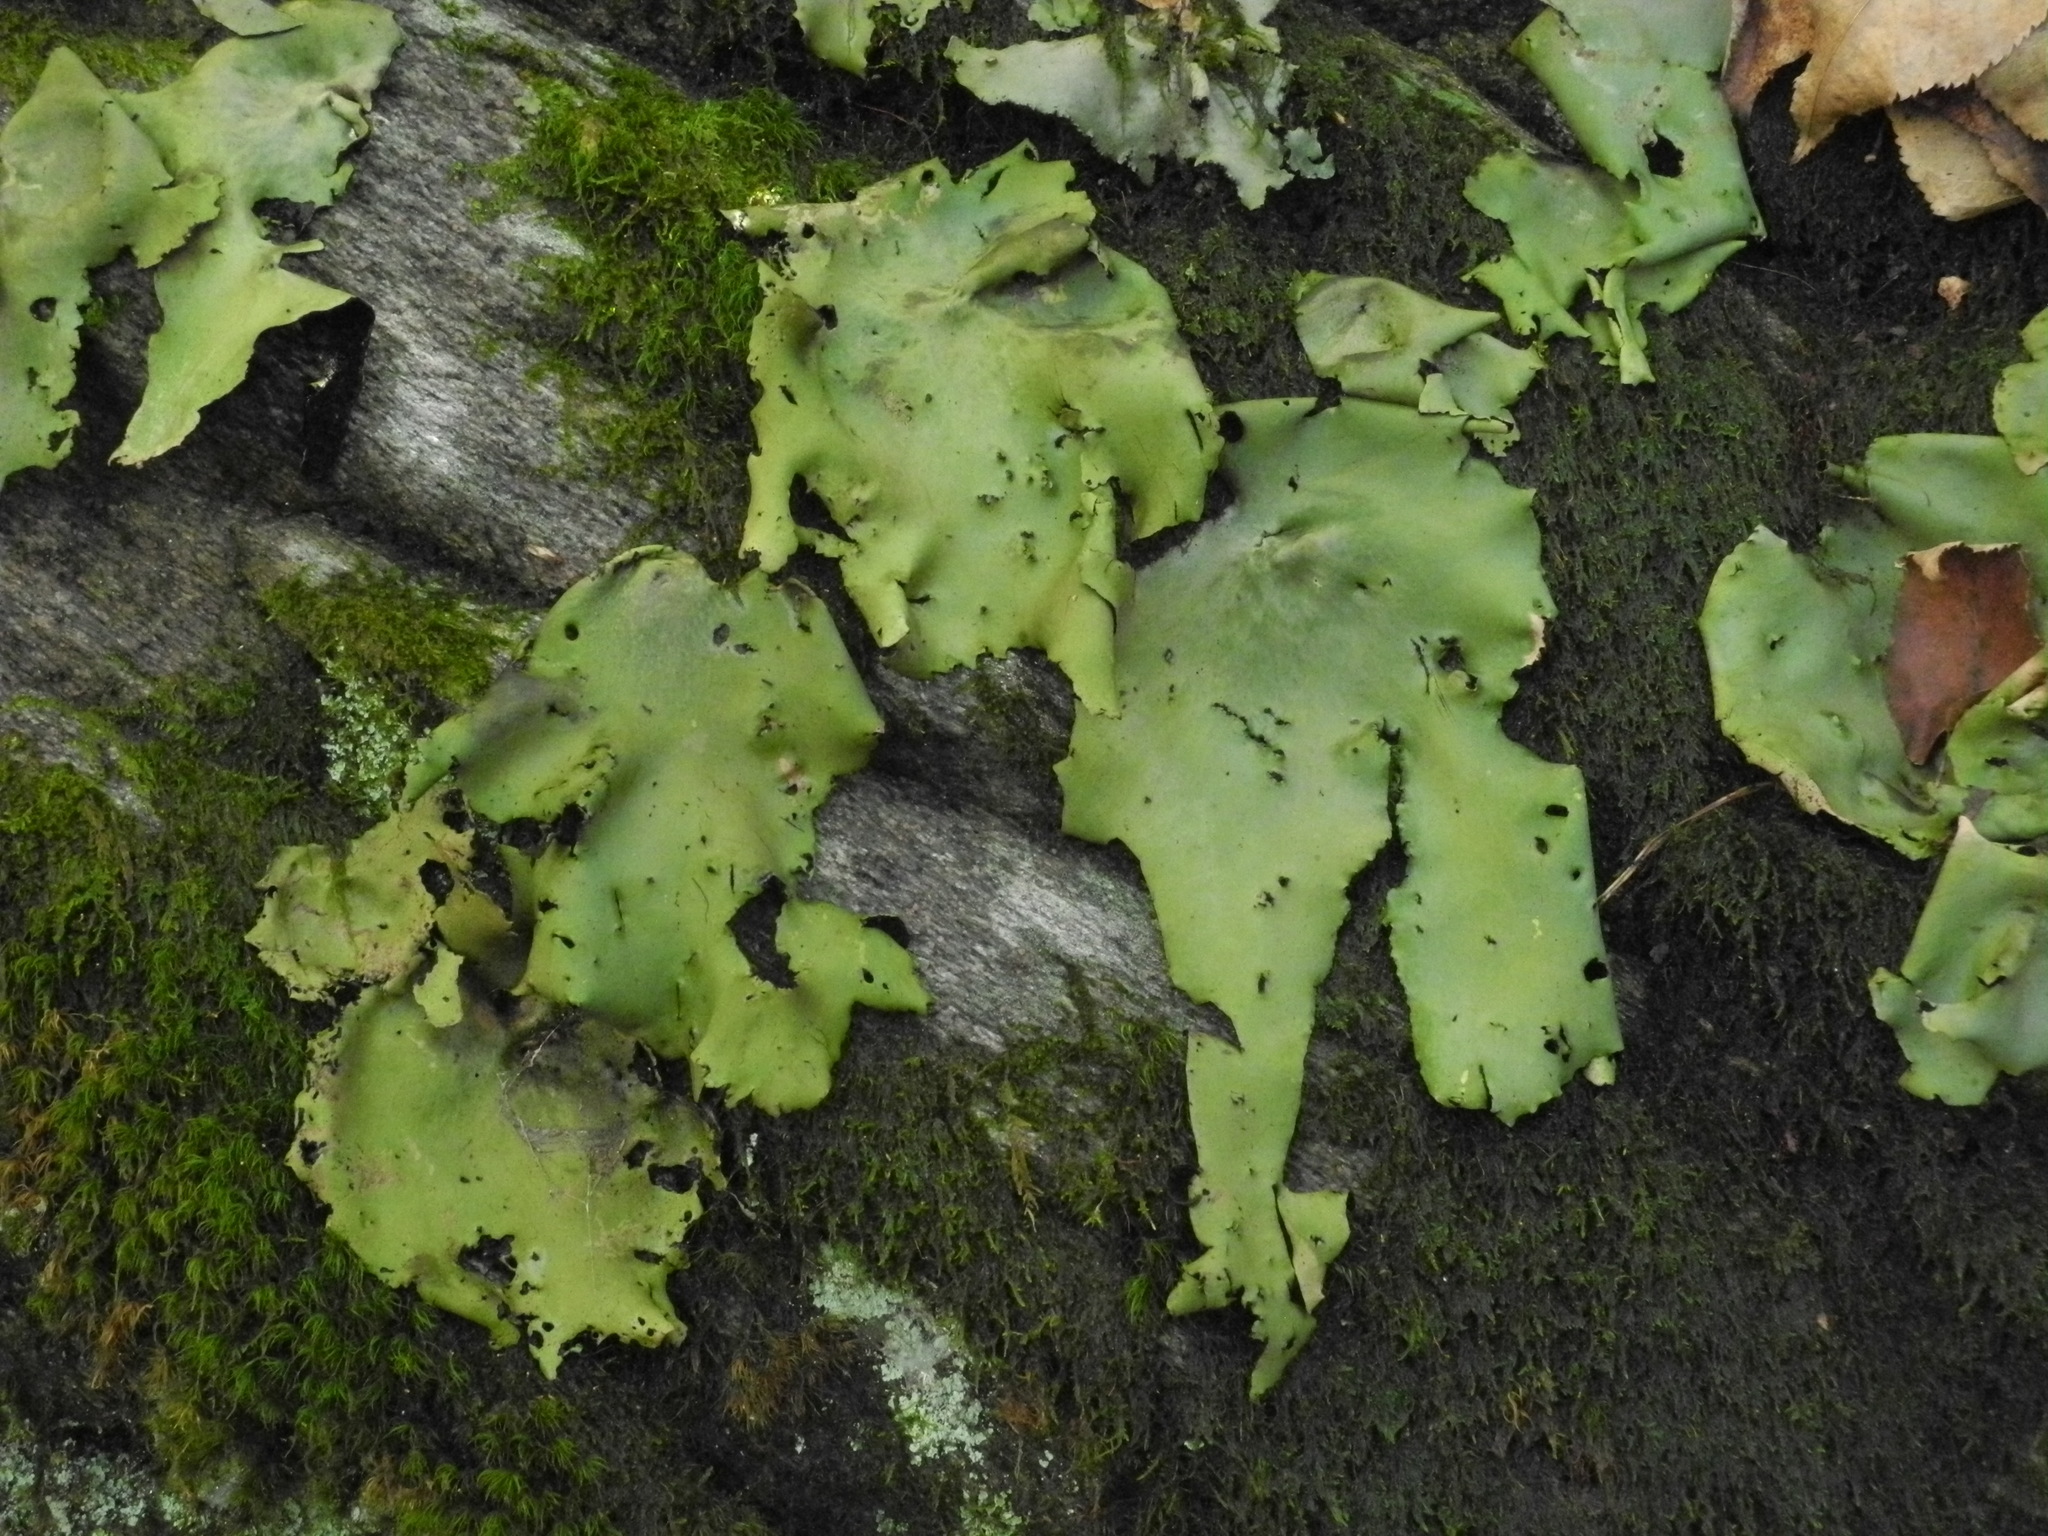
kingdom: Fungi
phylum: Ascomycota
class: Lecanoromycetes
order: Umbilicariales
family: Umbilicariaceae
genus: Umbilicaria
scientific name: Umbilicaria mammulata
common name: Smooth rock tripe
